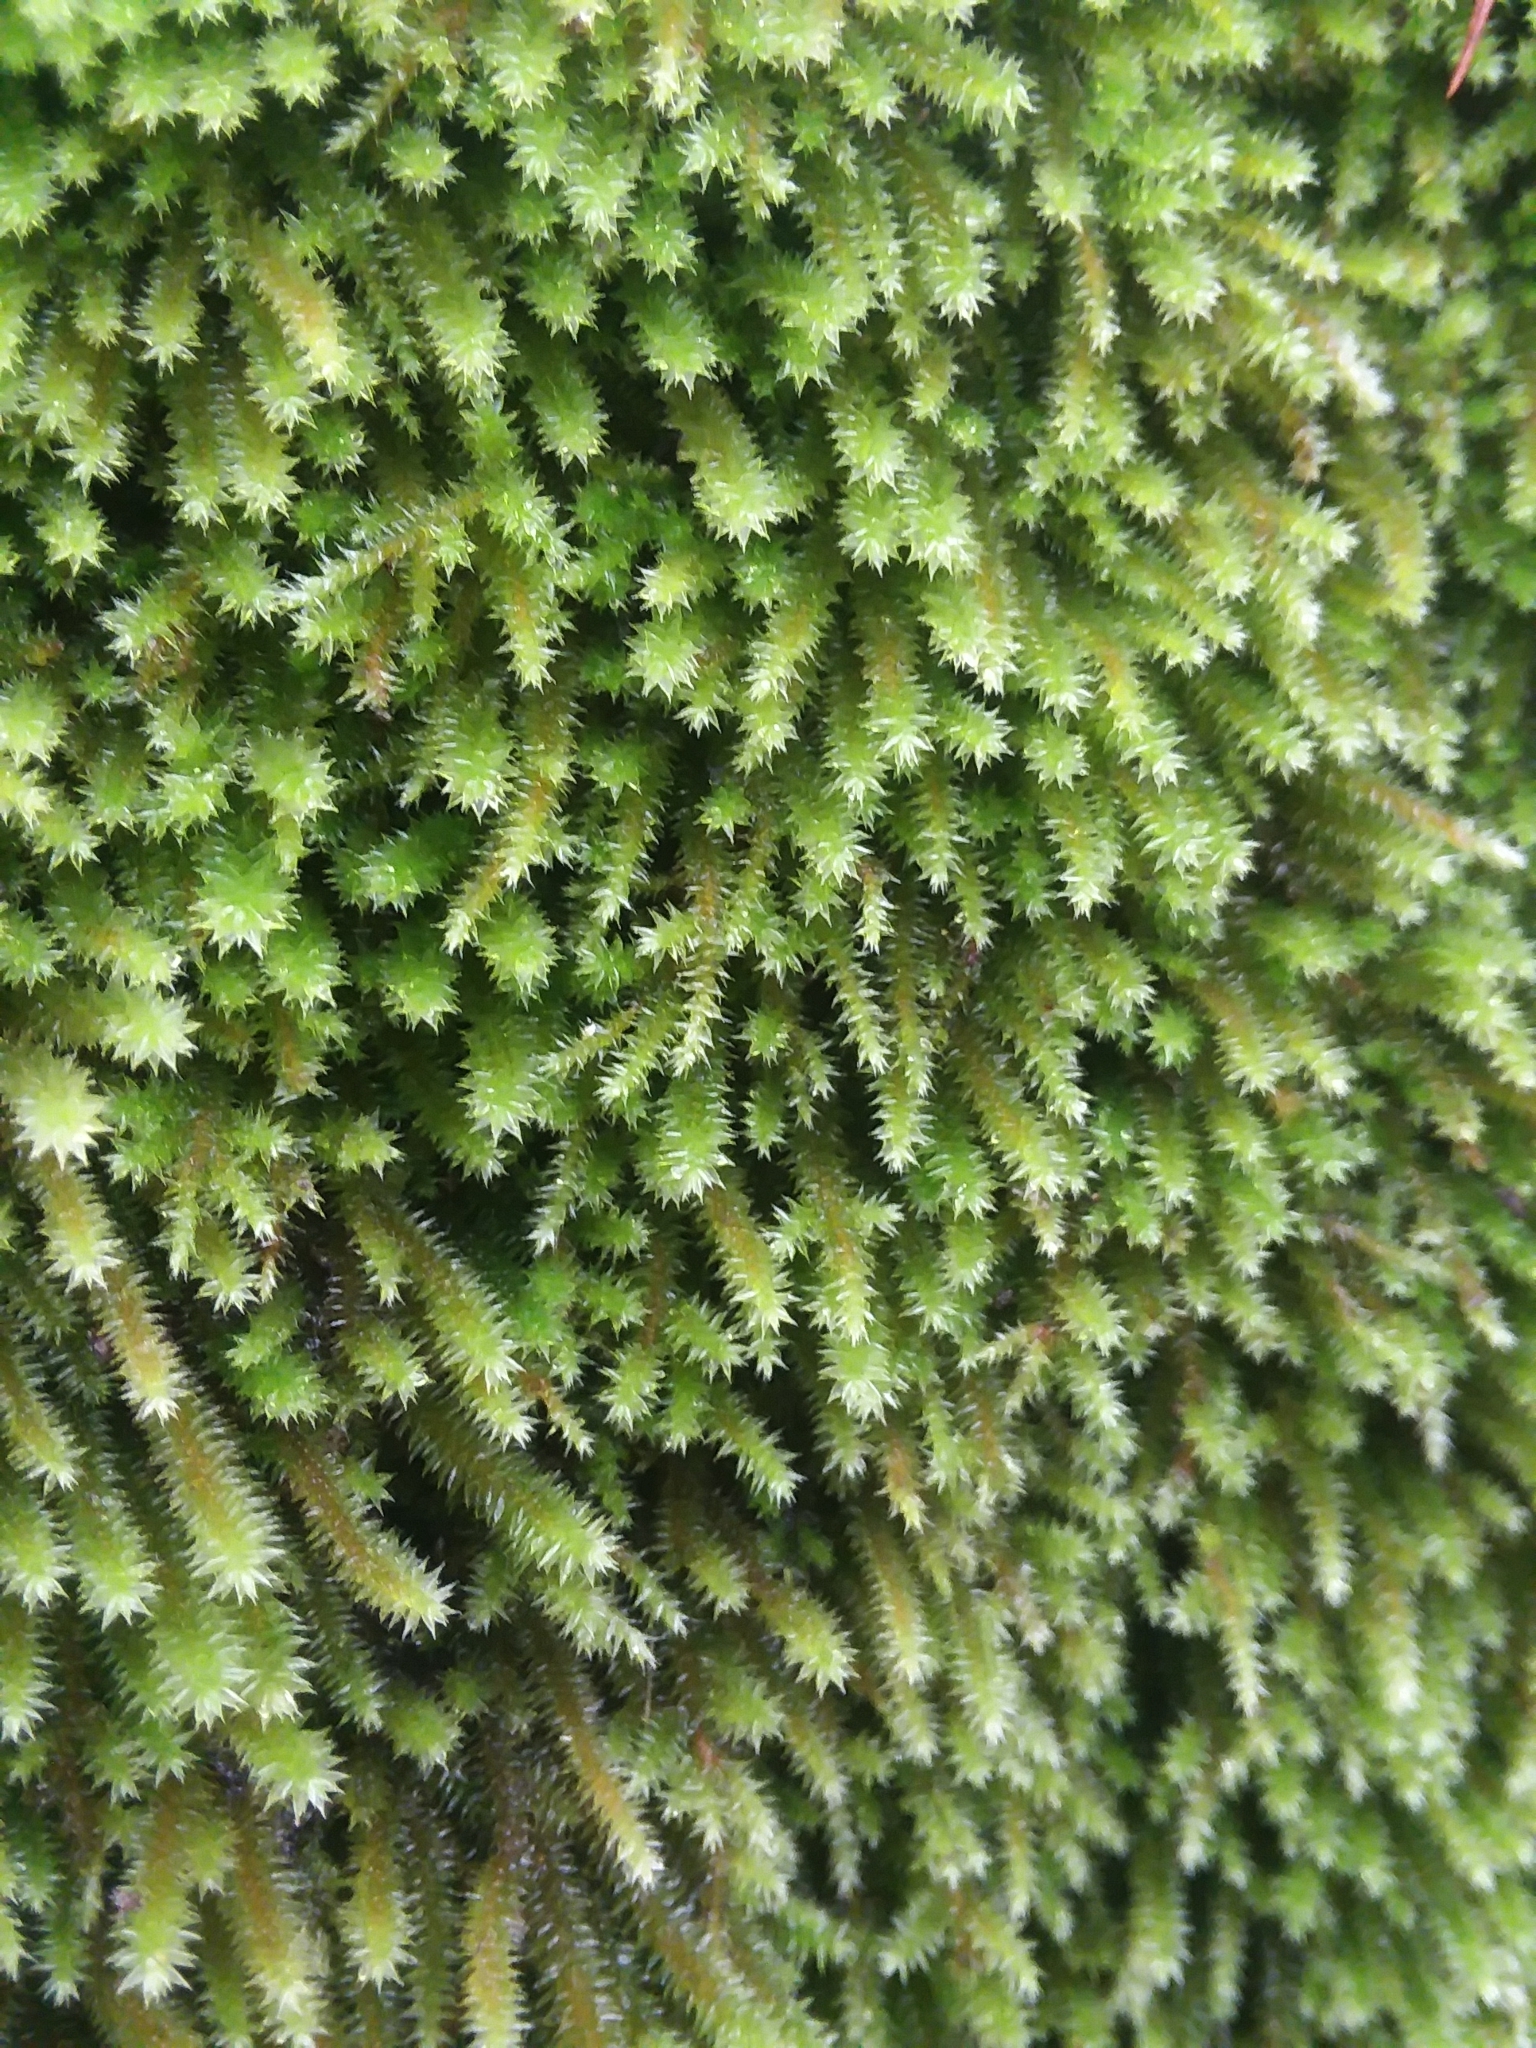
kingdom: Plantae
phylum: Bryophyta
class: Bryopsida
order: Hypnales
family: Leucodontaceae
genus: Leucodon
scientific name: Leucodon julaceus
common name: Smooth hook moss
